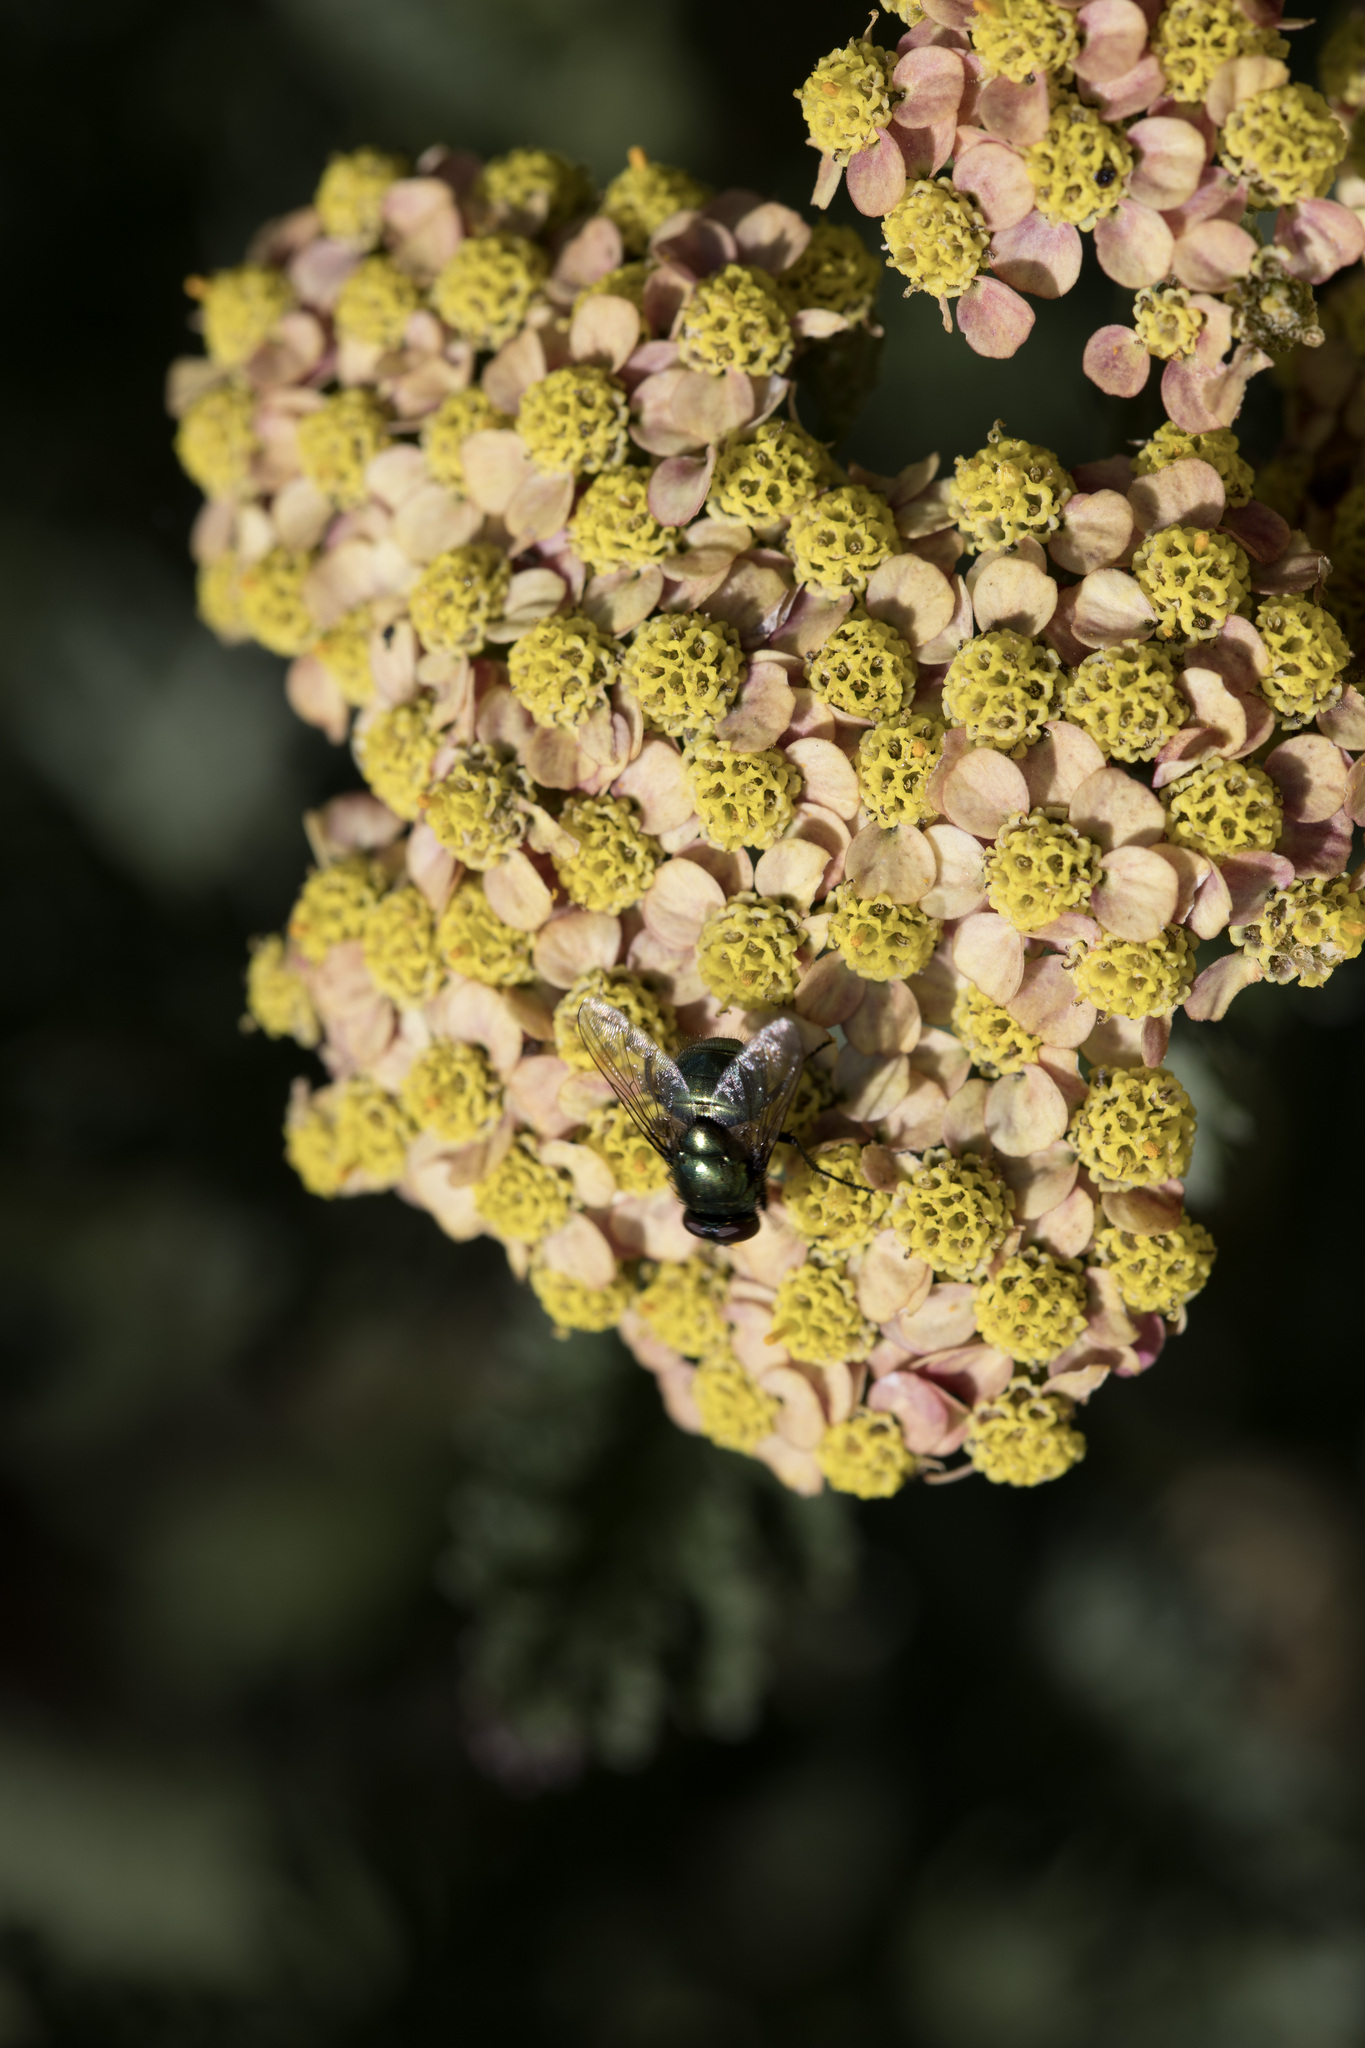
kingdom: Animalia
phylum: Arthropoda
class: Insecta
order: Diptera
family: Calliphoridae
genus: Lucilia
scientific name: Lucilia
